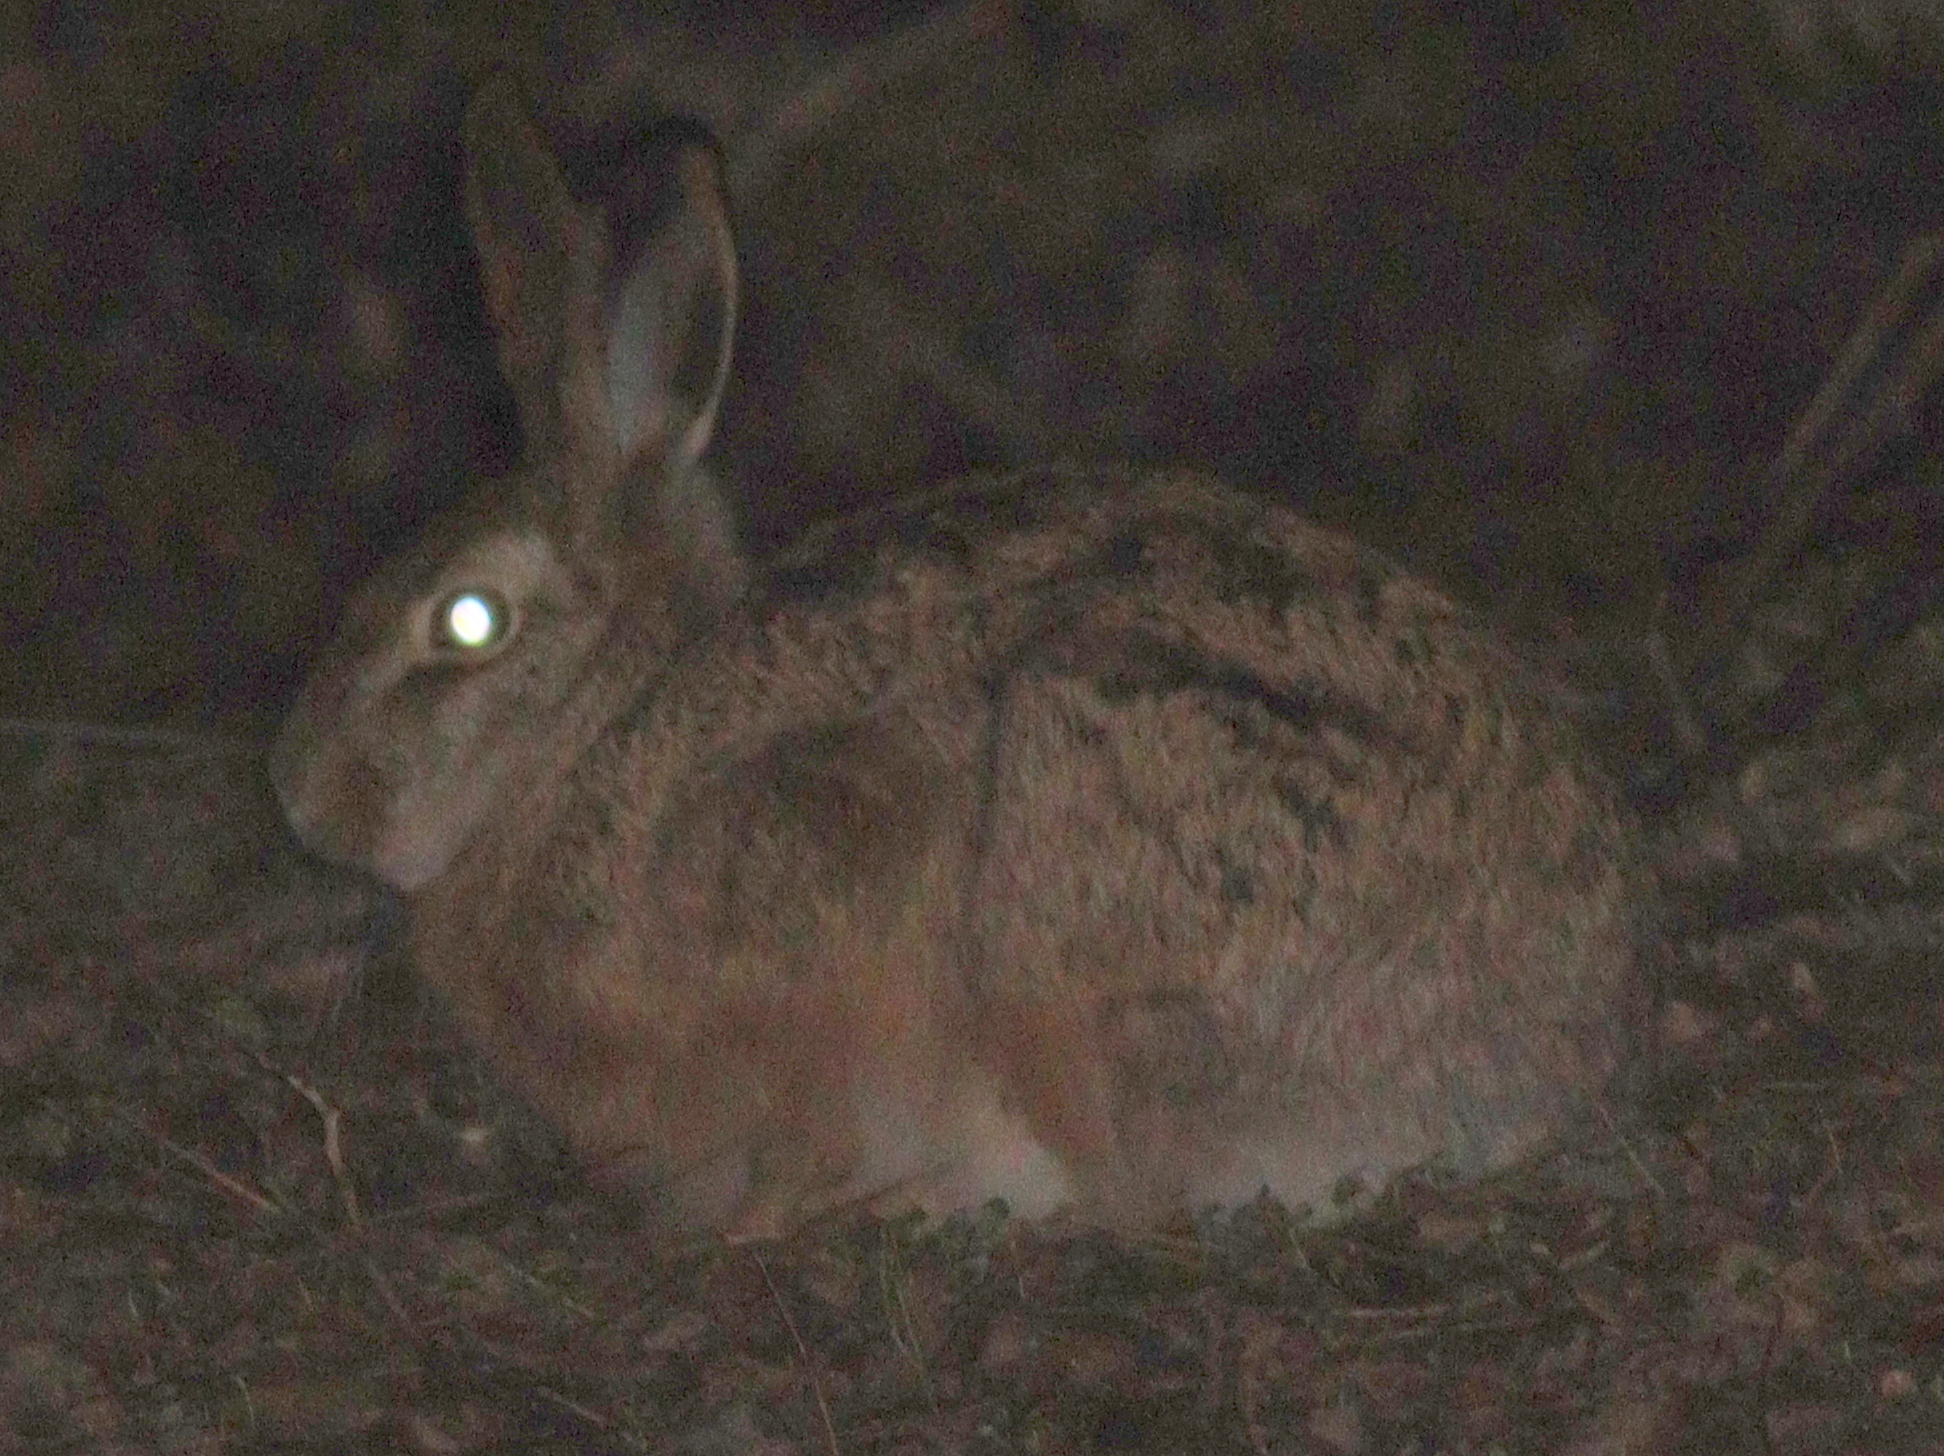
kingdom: Animalia
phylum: Chordata
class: Mammalia
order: Lagomorpha
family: Leporidae
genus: Lepus
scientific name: Lepus europaeus
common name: European hare
